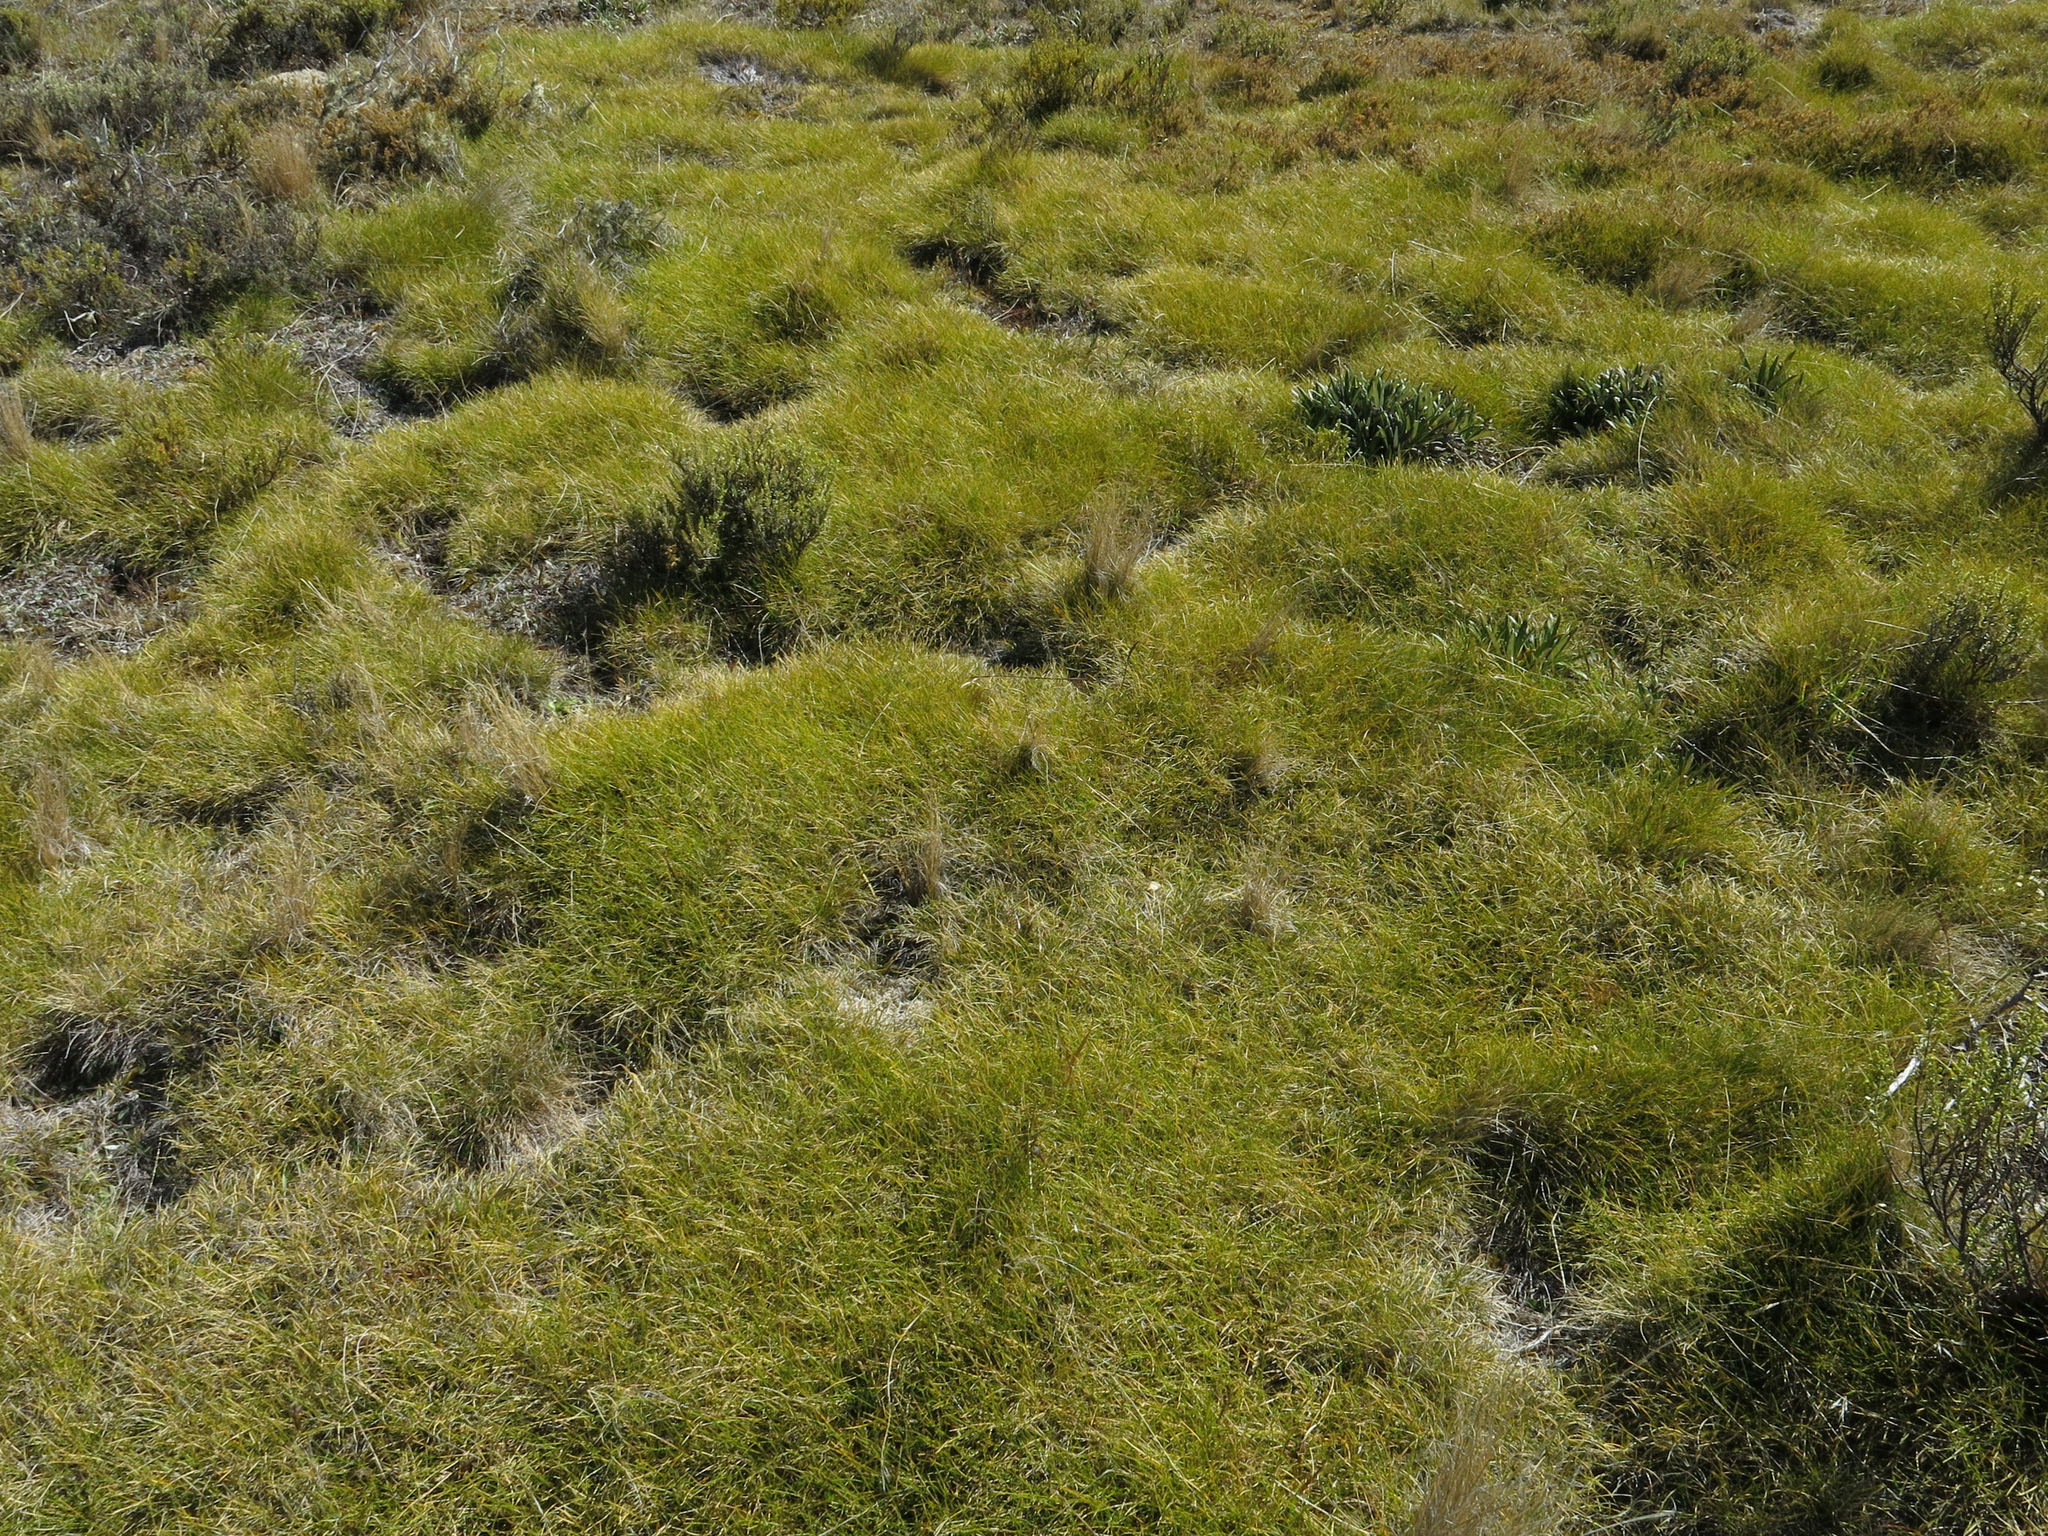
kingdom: Plantae
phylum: Tracheophyta
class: Liliopsida
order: Poales
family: Poaceae
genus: Chionochloa
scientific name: Chionochloa australis
